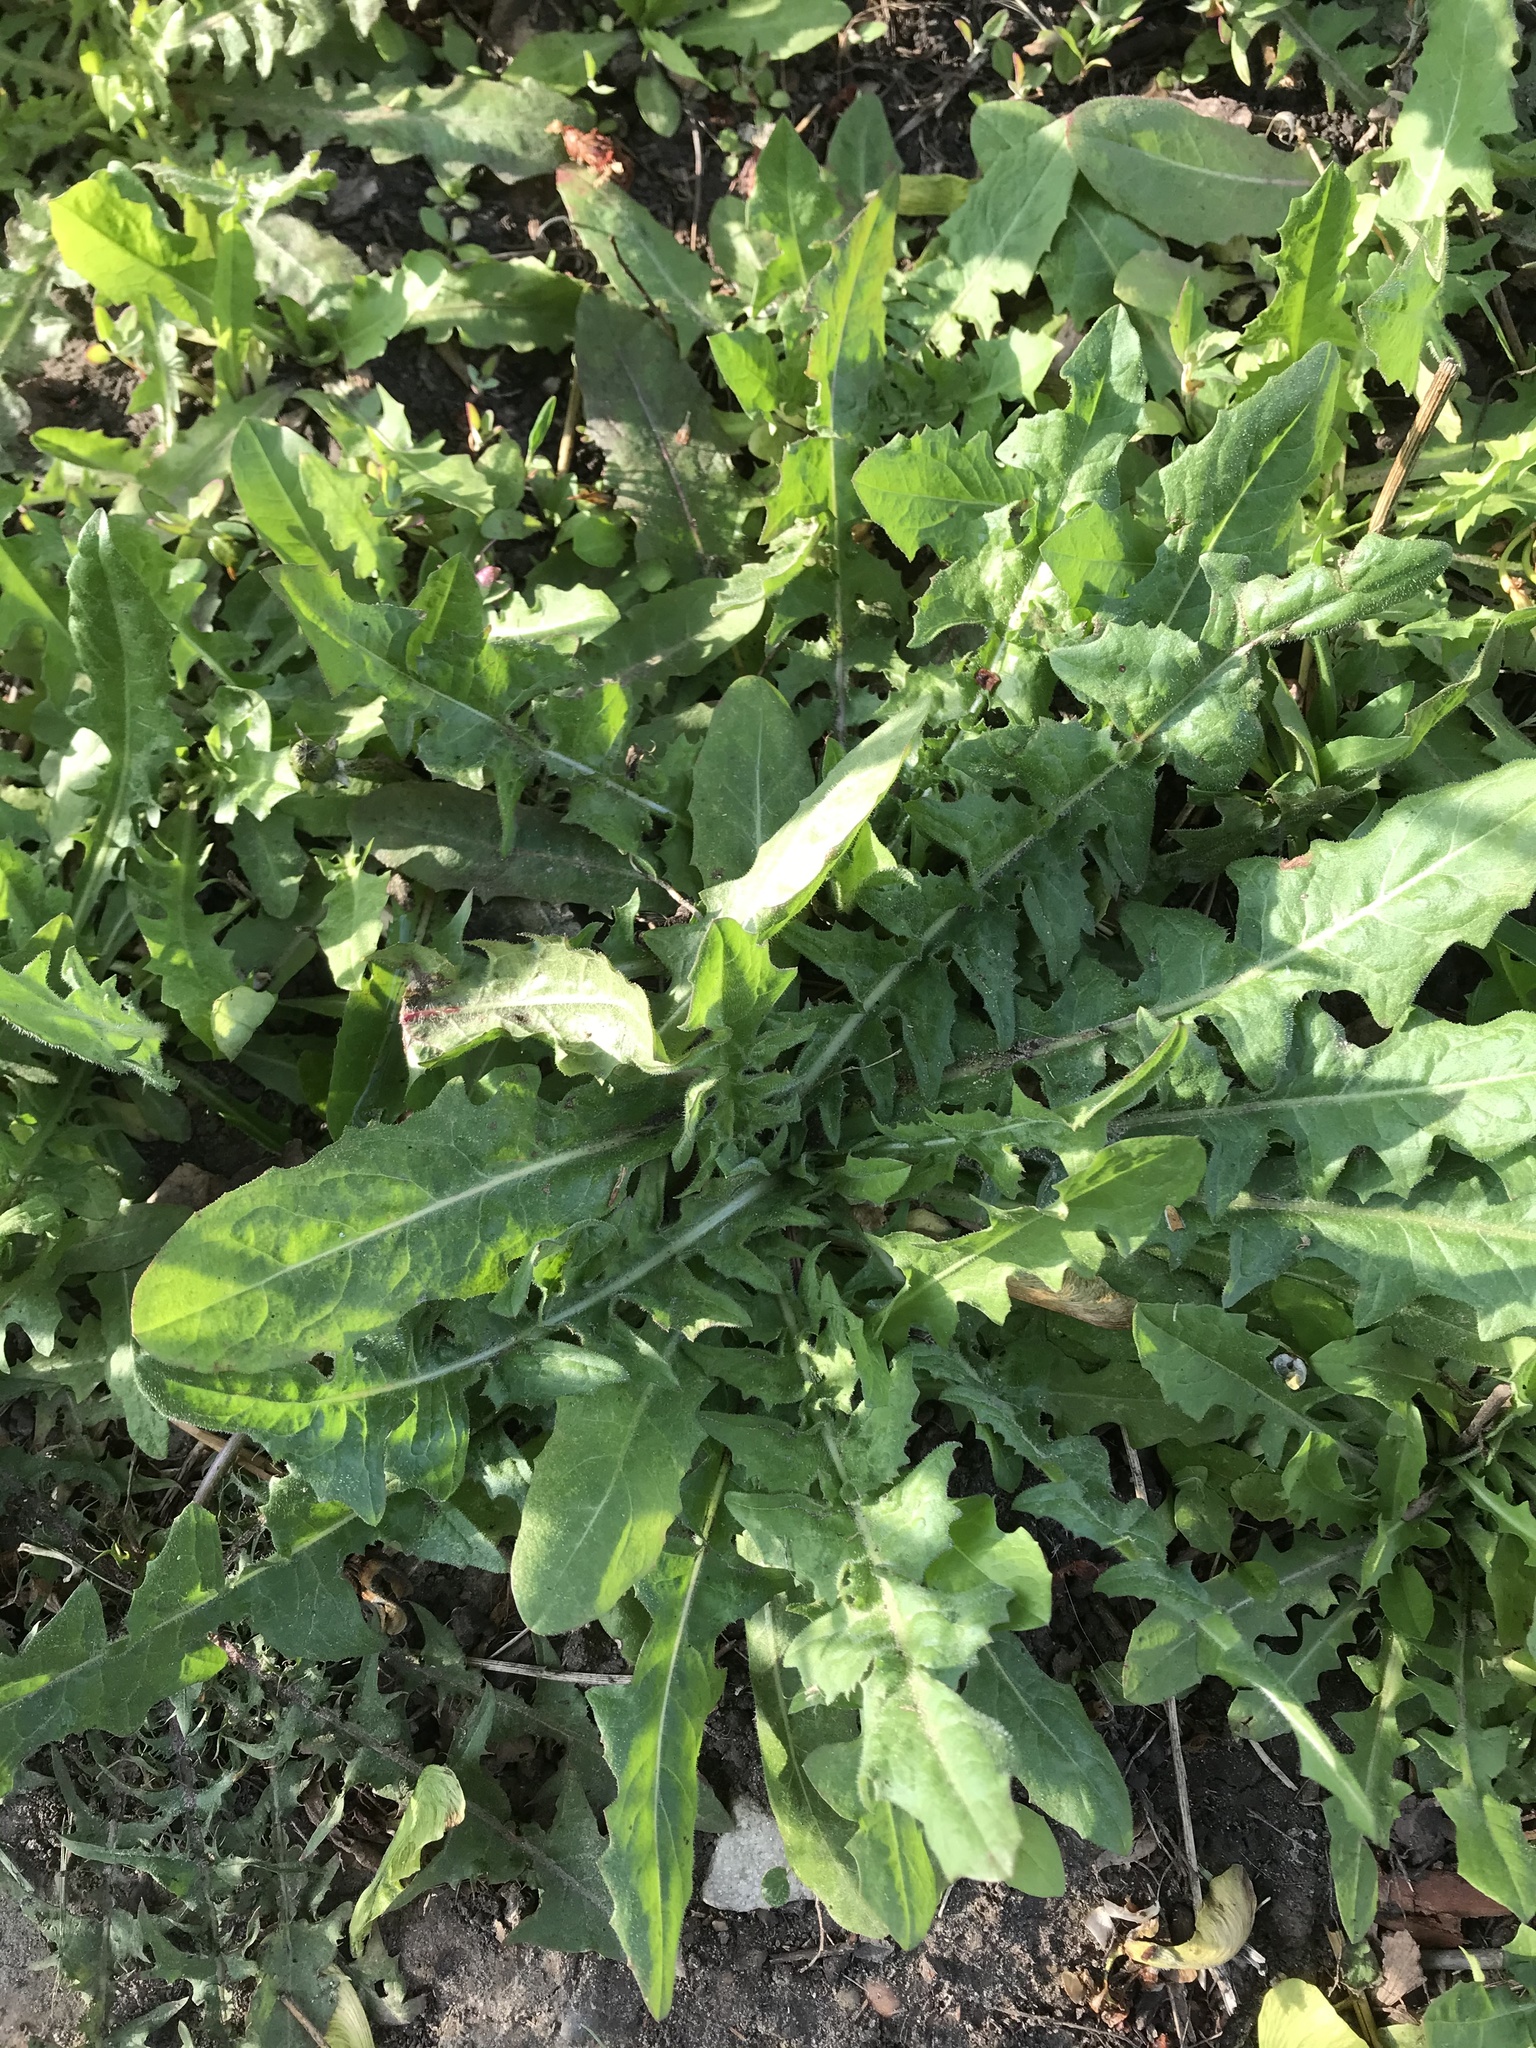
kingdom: Plantae
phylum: Tracheophyta
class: Magnoliopsida
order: Asterales
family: Asteraceae
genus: Taraxacum
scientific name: Taraxacum officinale
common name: Common dandelion
